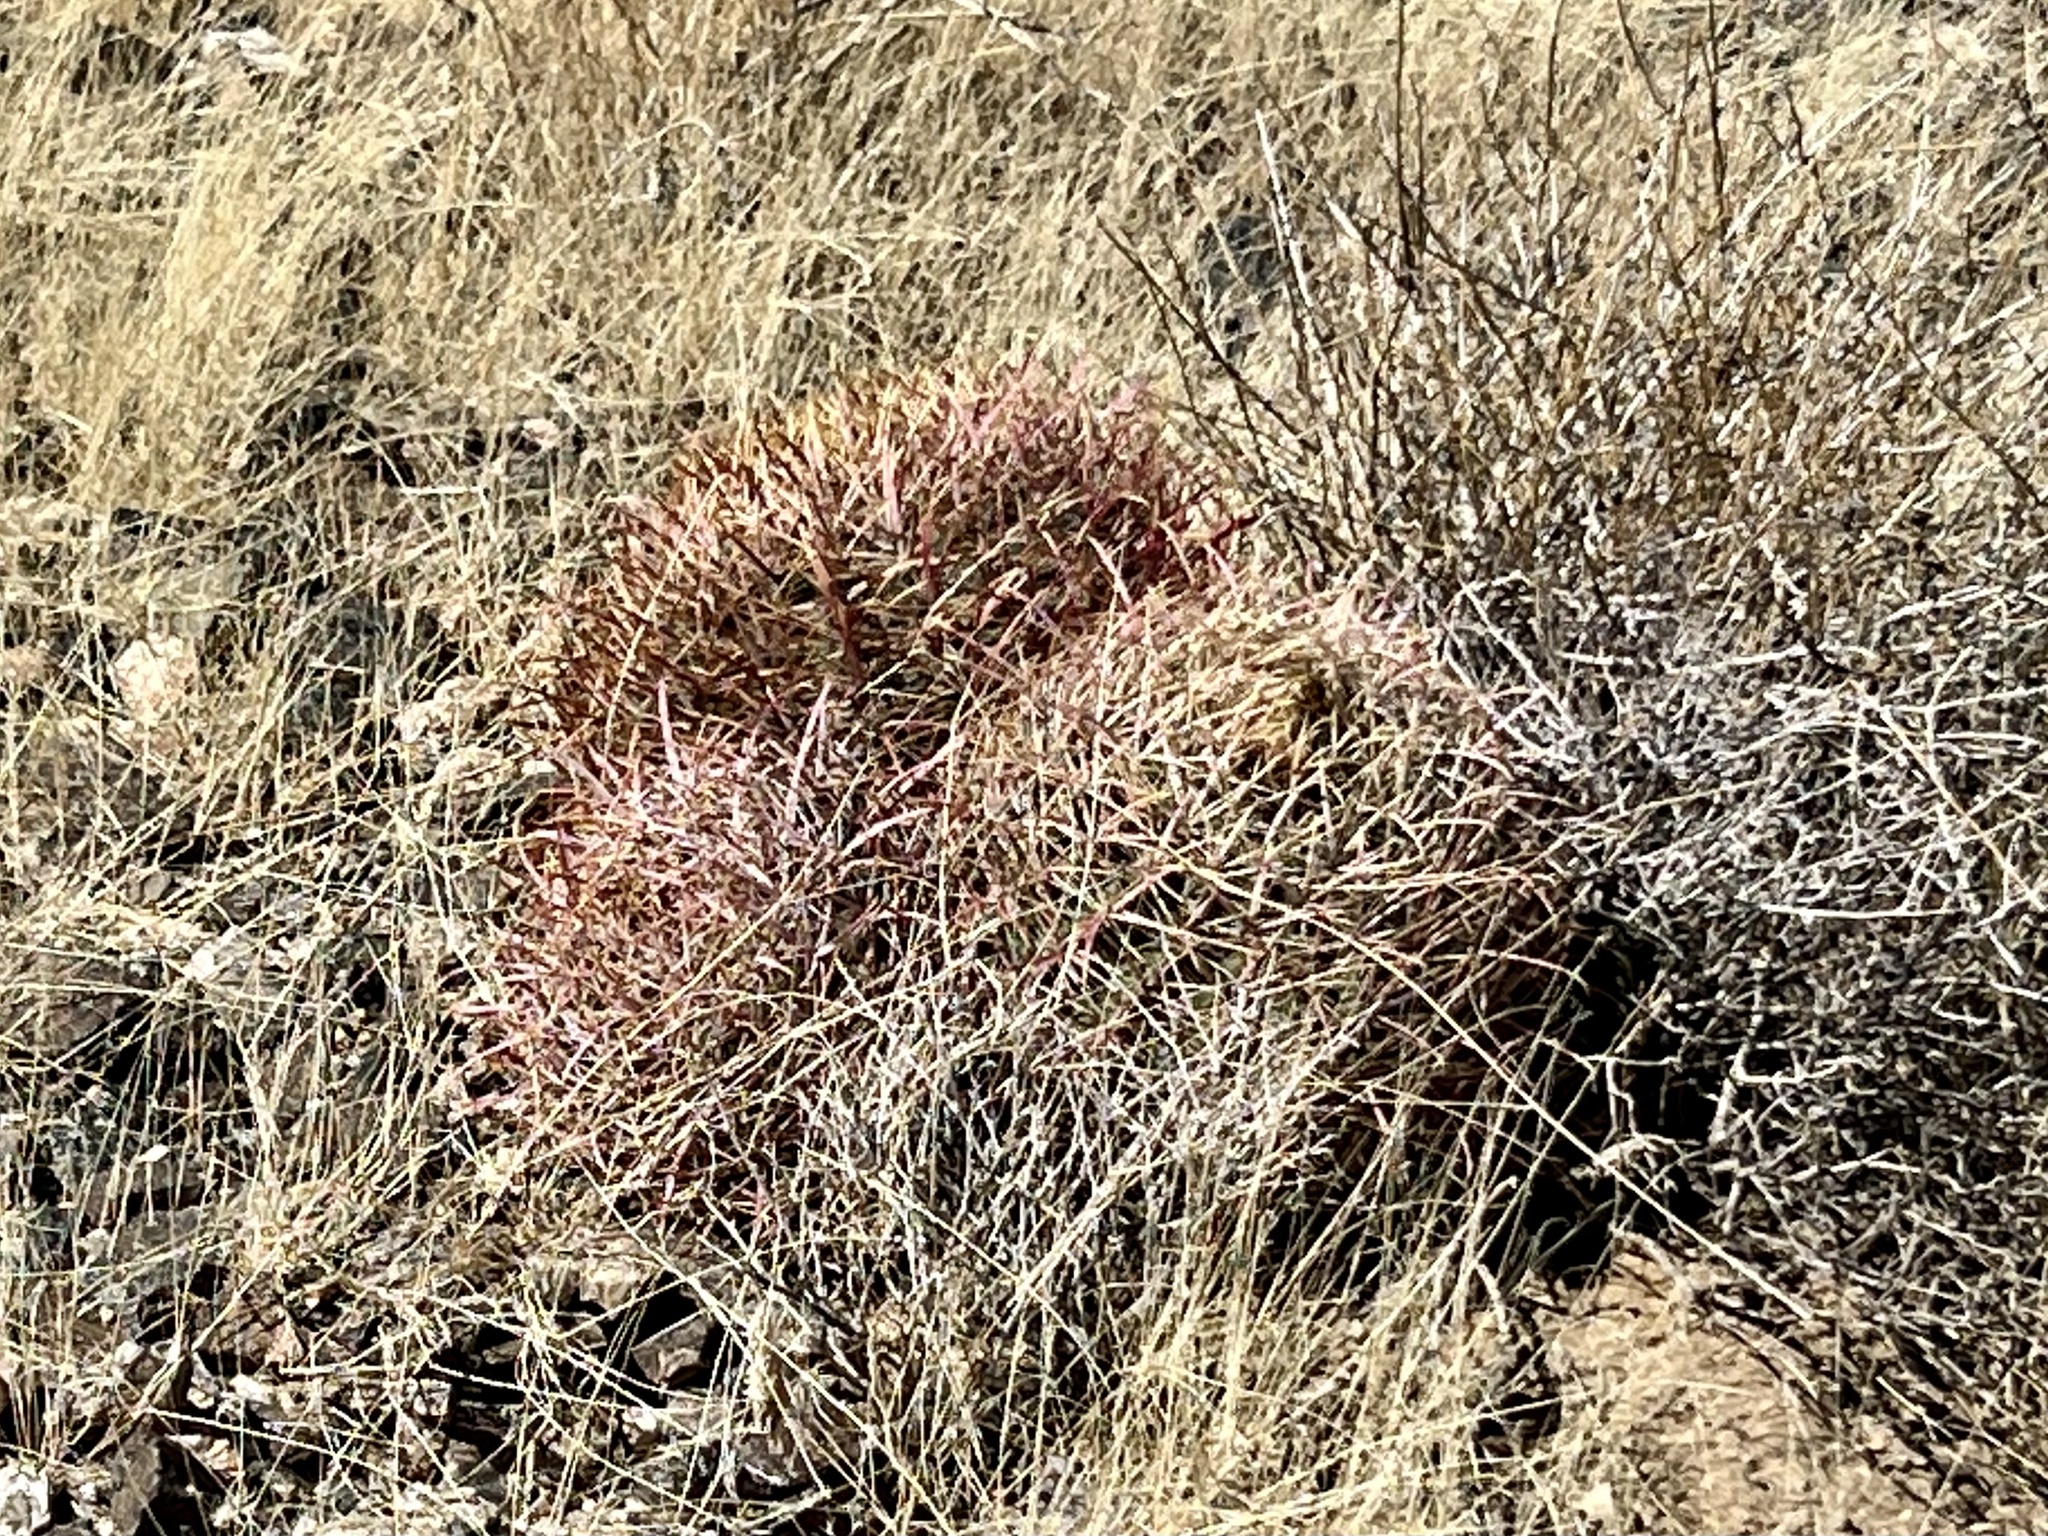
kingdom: Plantae
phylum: Tracheophyta
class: Magnoliopsida
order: Caryophyllales
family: Cactaceae
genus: Ferocactus
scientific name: Ferocactus cylindraceus
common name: California barrel cactus
